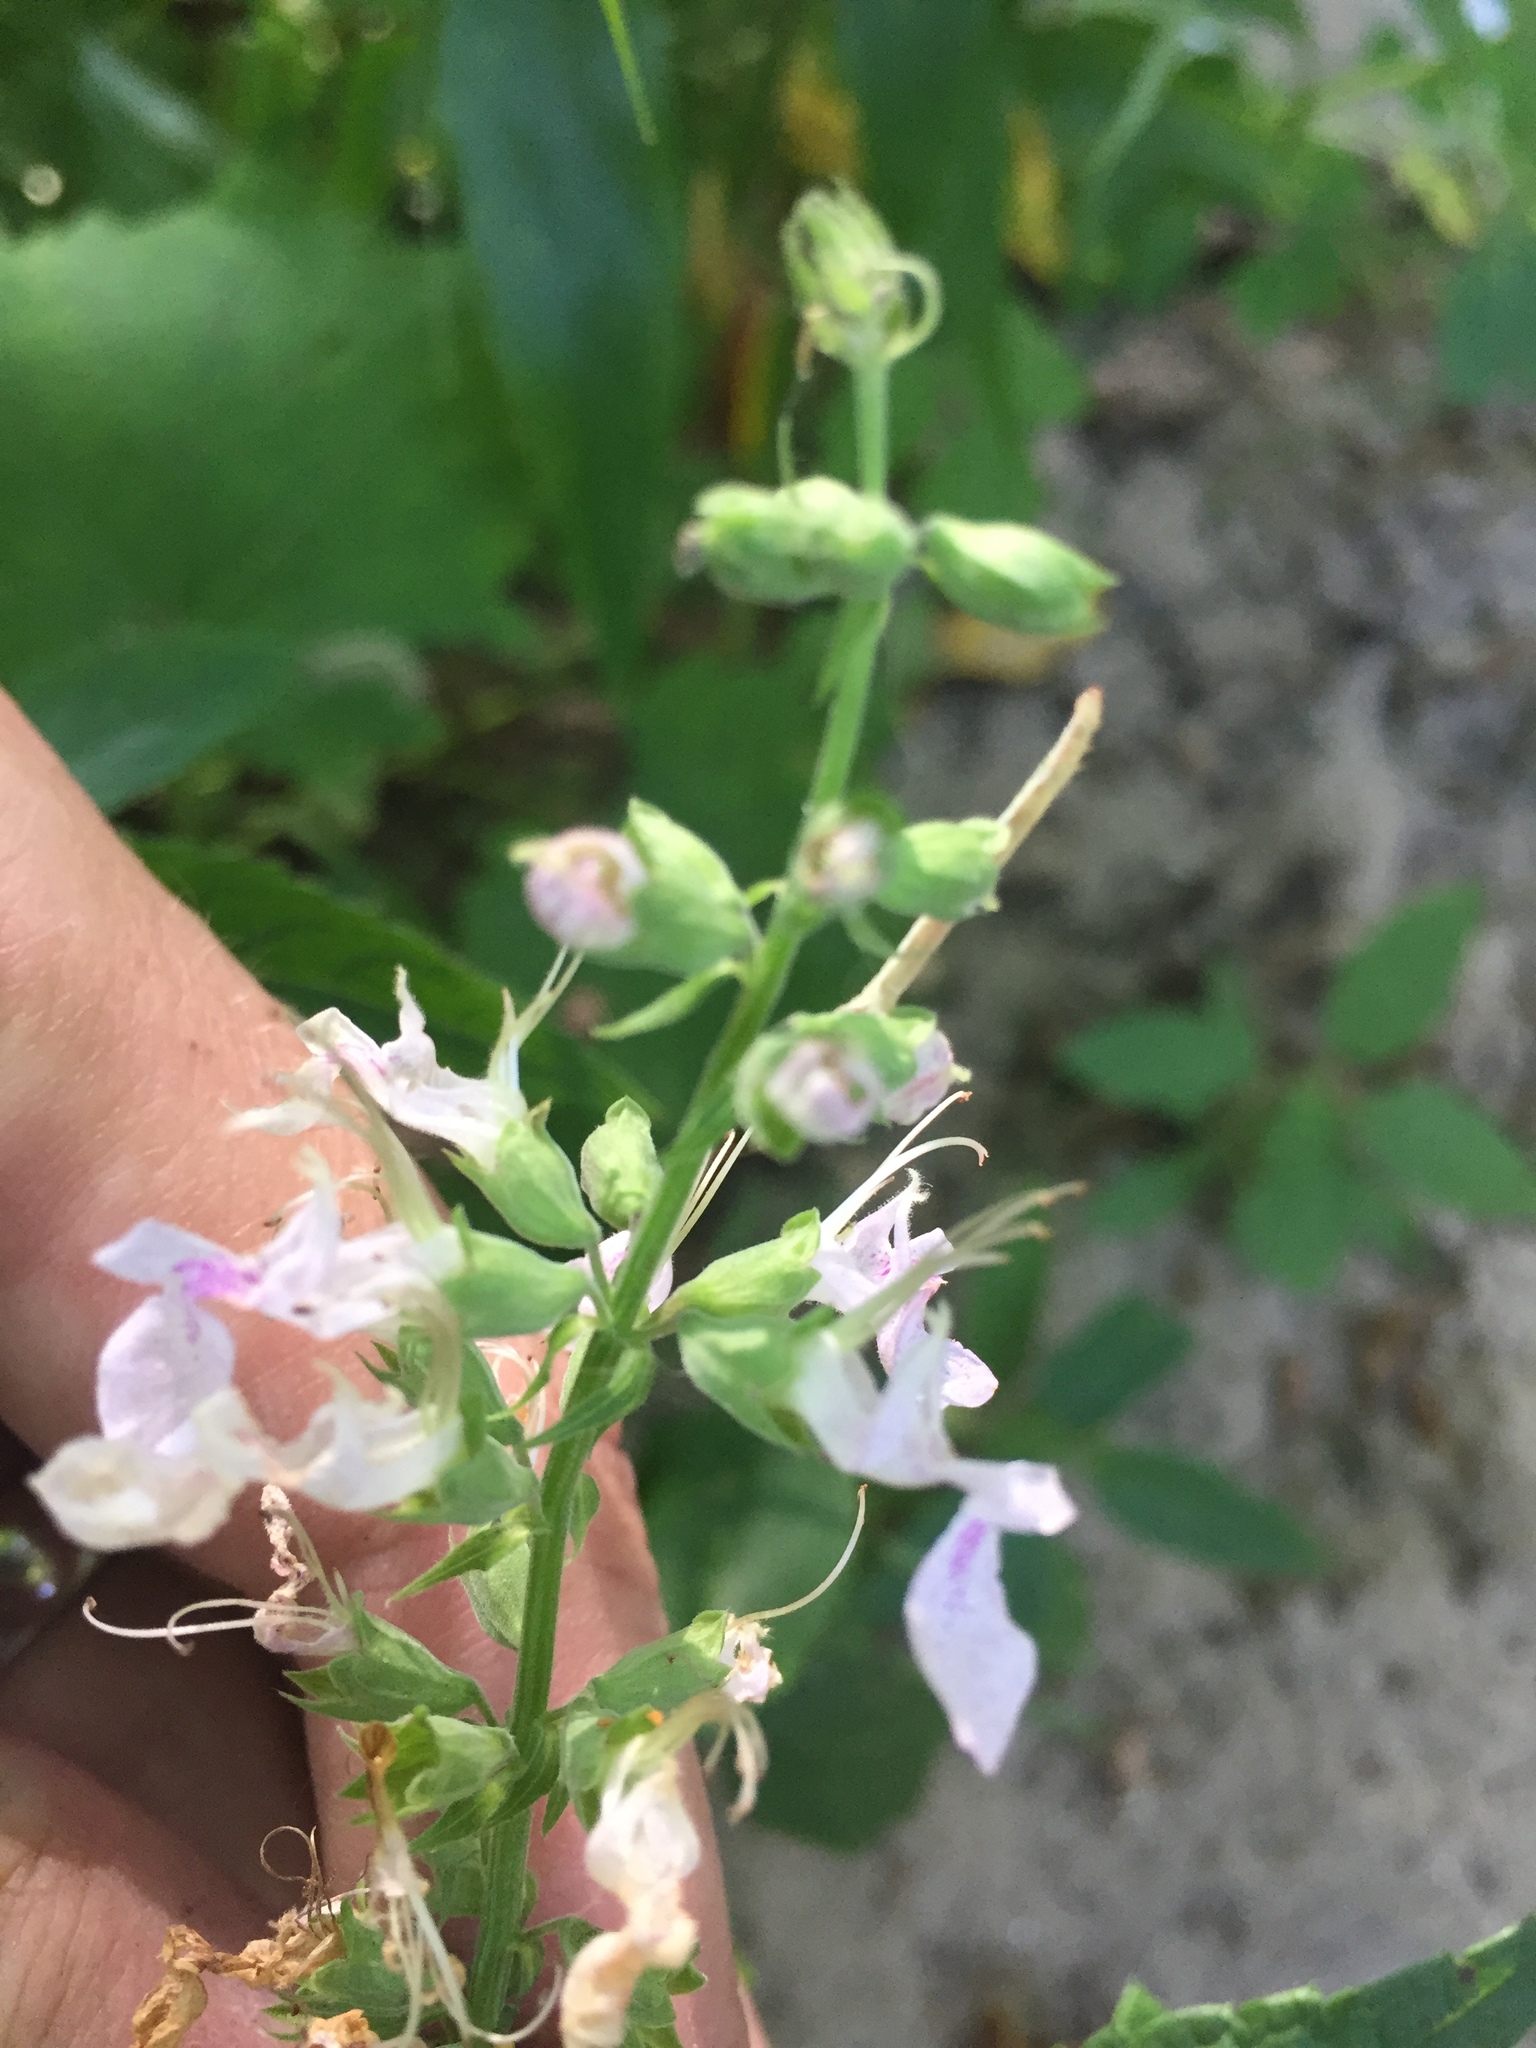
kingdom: Plantae
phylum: Tracheophyta
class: Magnoliopsida
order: Lamiales
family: Lamiaceae
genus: Teucrium
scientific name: Teucrium canadense
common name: American germander
